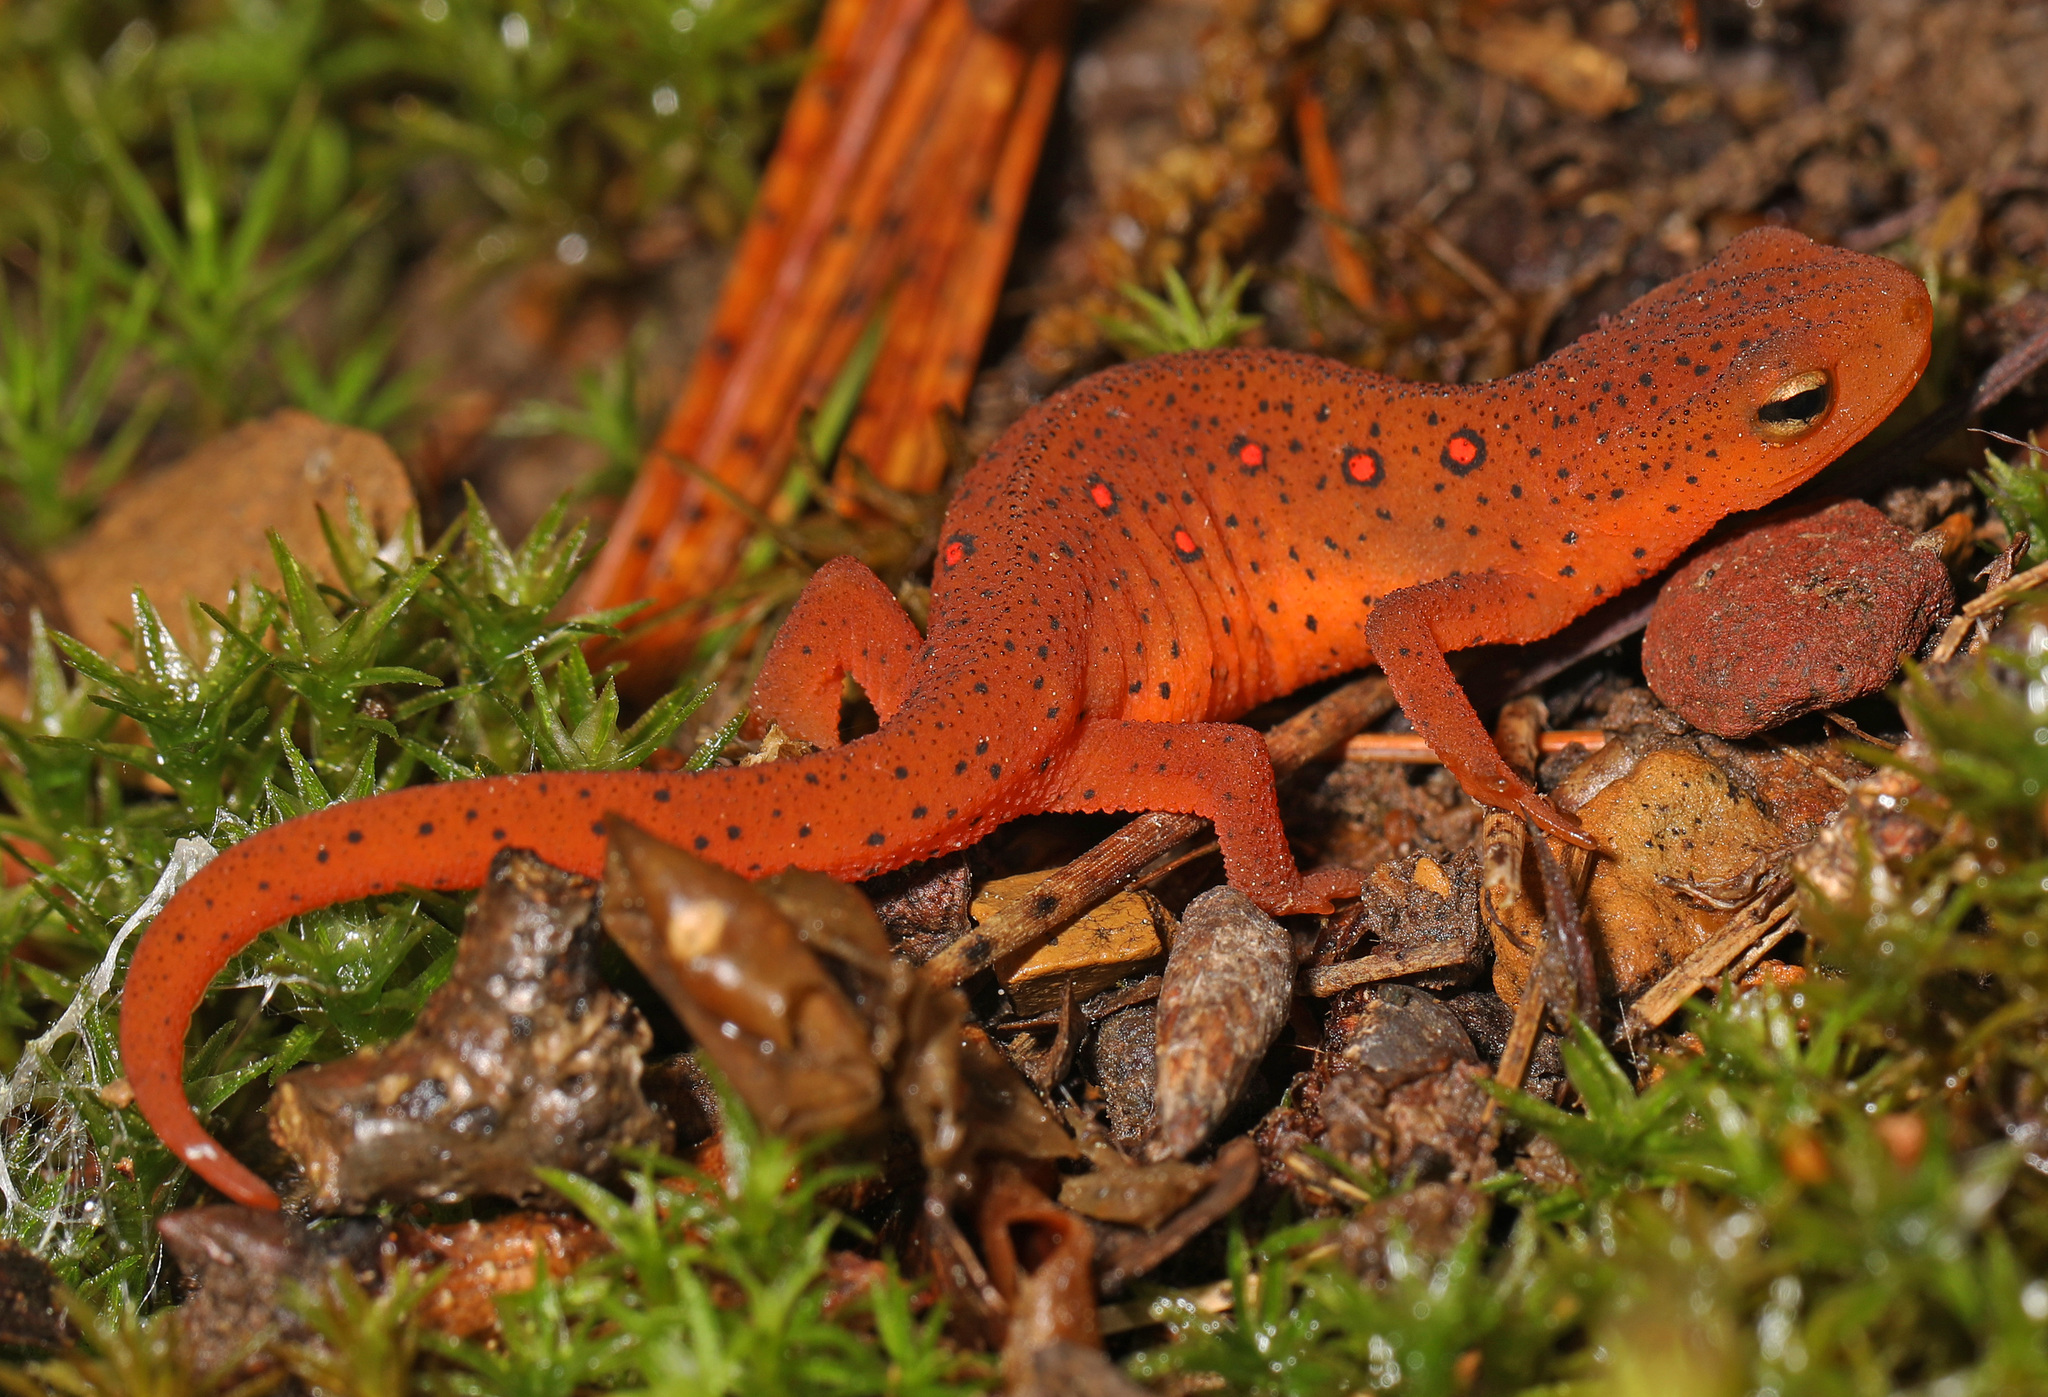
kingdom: Animalia
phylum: Chordata
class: Amphibia
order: Caudata
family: Salamandridae
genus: Notophthalmus
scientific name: Notophthalmus viridescens
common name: Eastern newt
